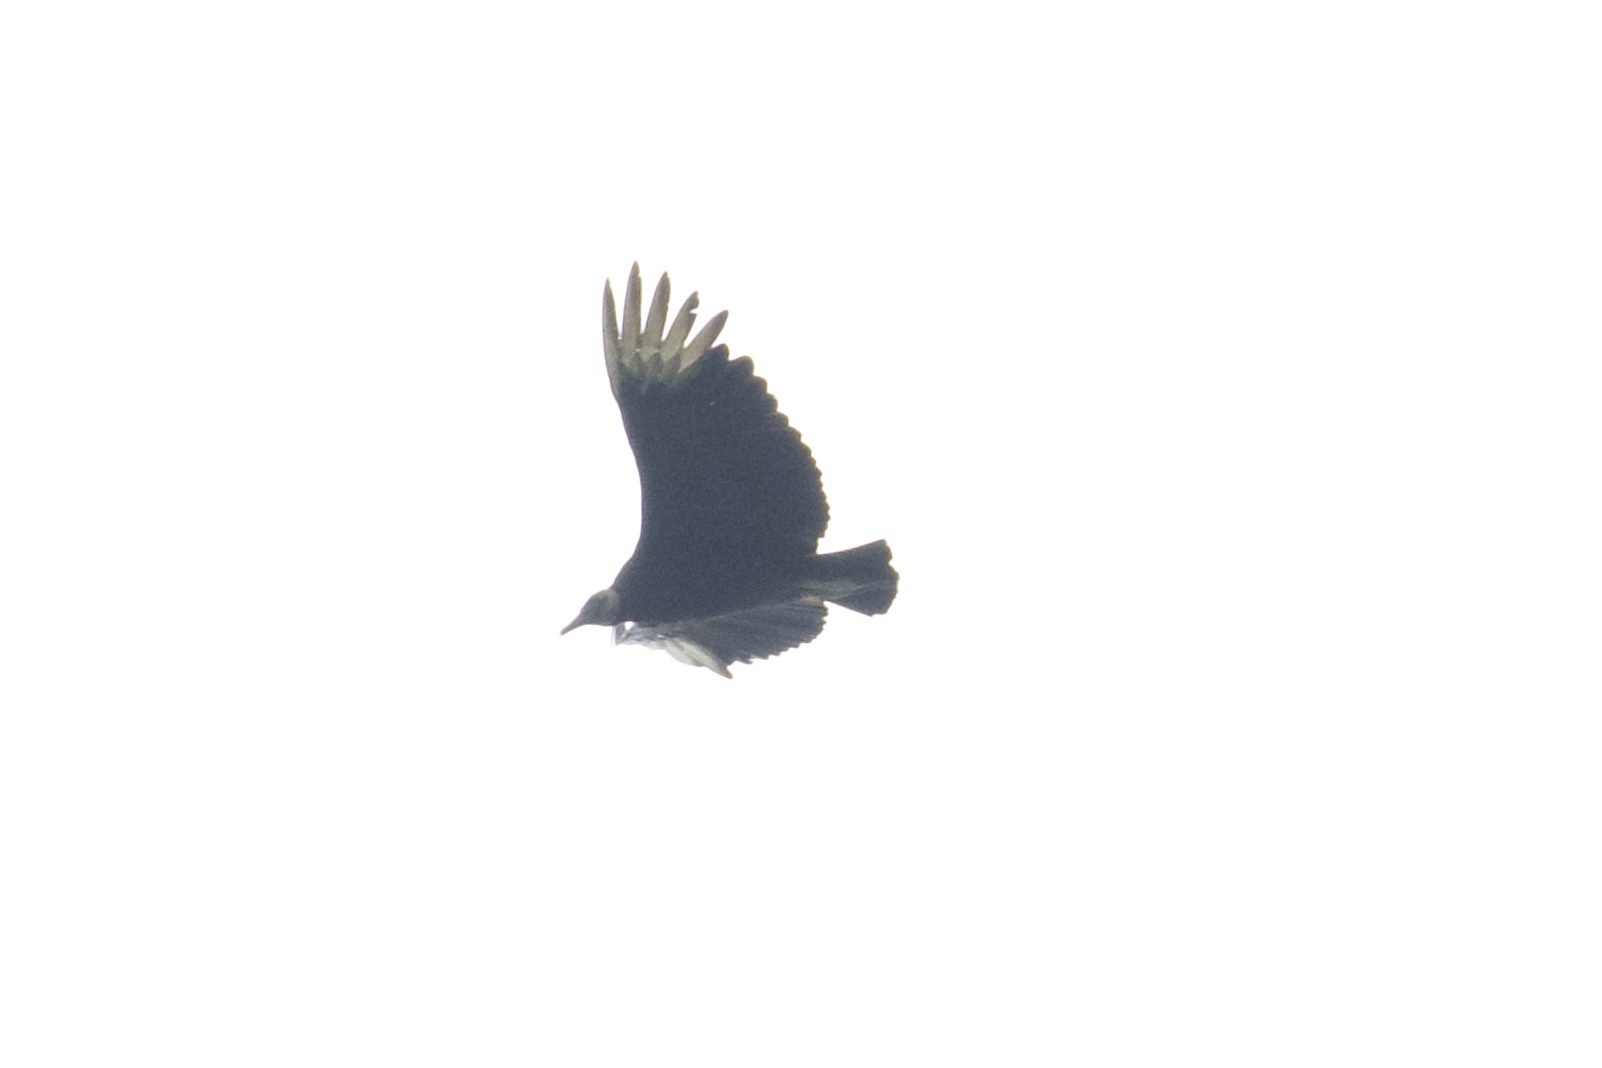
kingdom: Animalia
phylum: Chordata
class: Aves
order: Accipitriformes
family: Cathartidae
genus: Coragyps
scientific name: Coragyps atratus
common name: Black vulture
